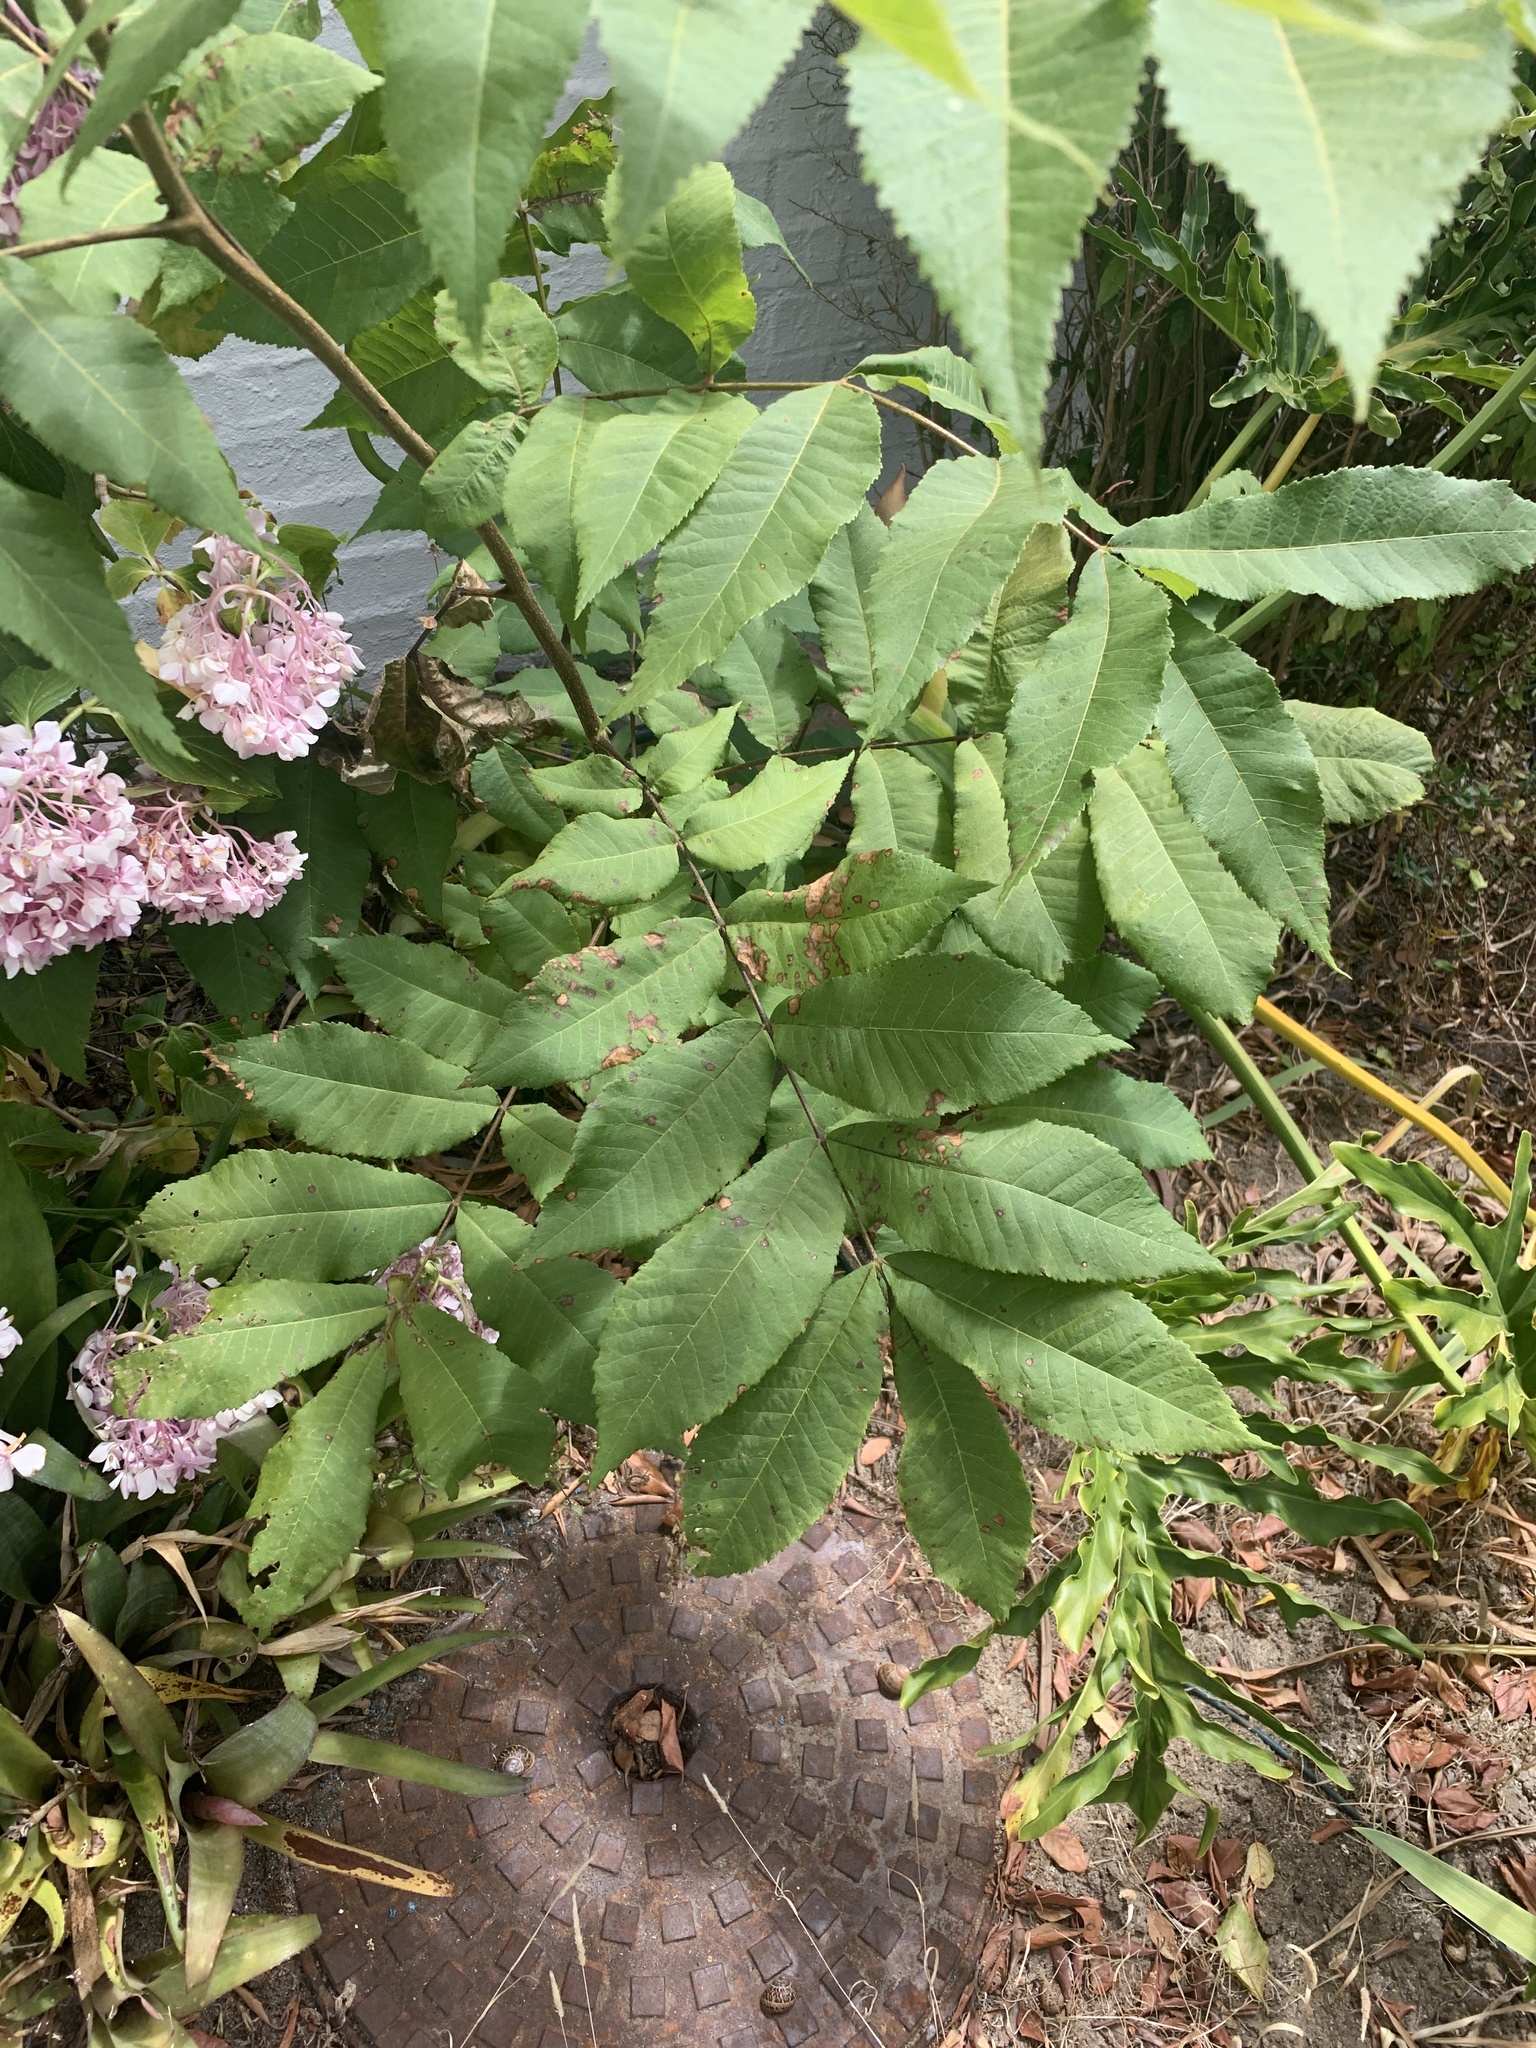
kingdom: Plantae
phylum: Tracheophyta
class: Magnoliopsida
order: Fagales
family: Juglandaceae
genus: Carya
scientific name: Carya illinoinensis
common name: Pecan
